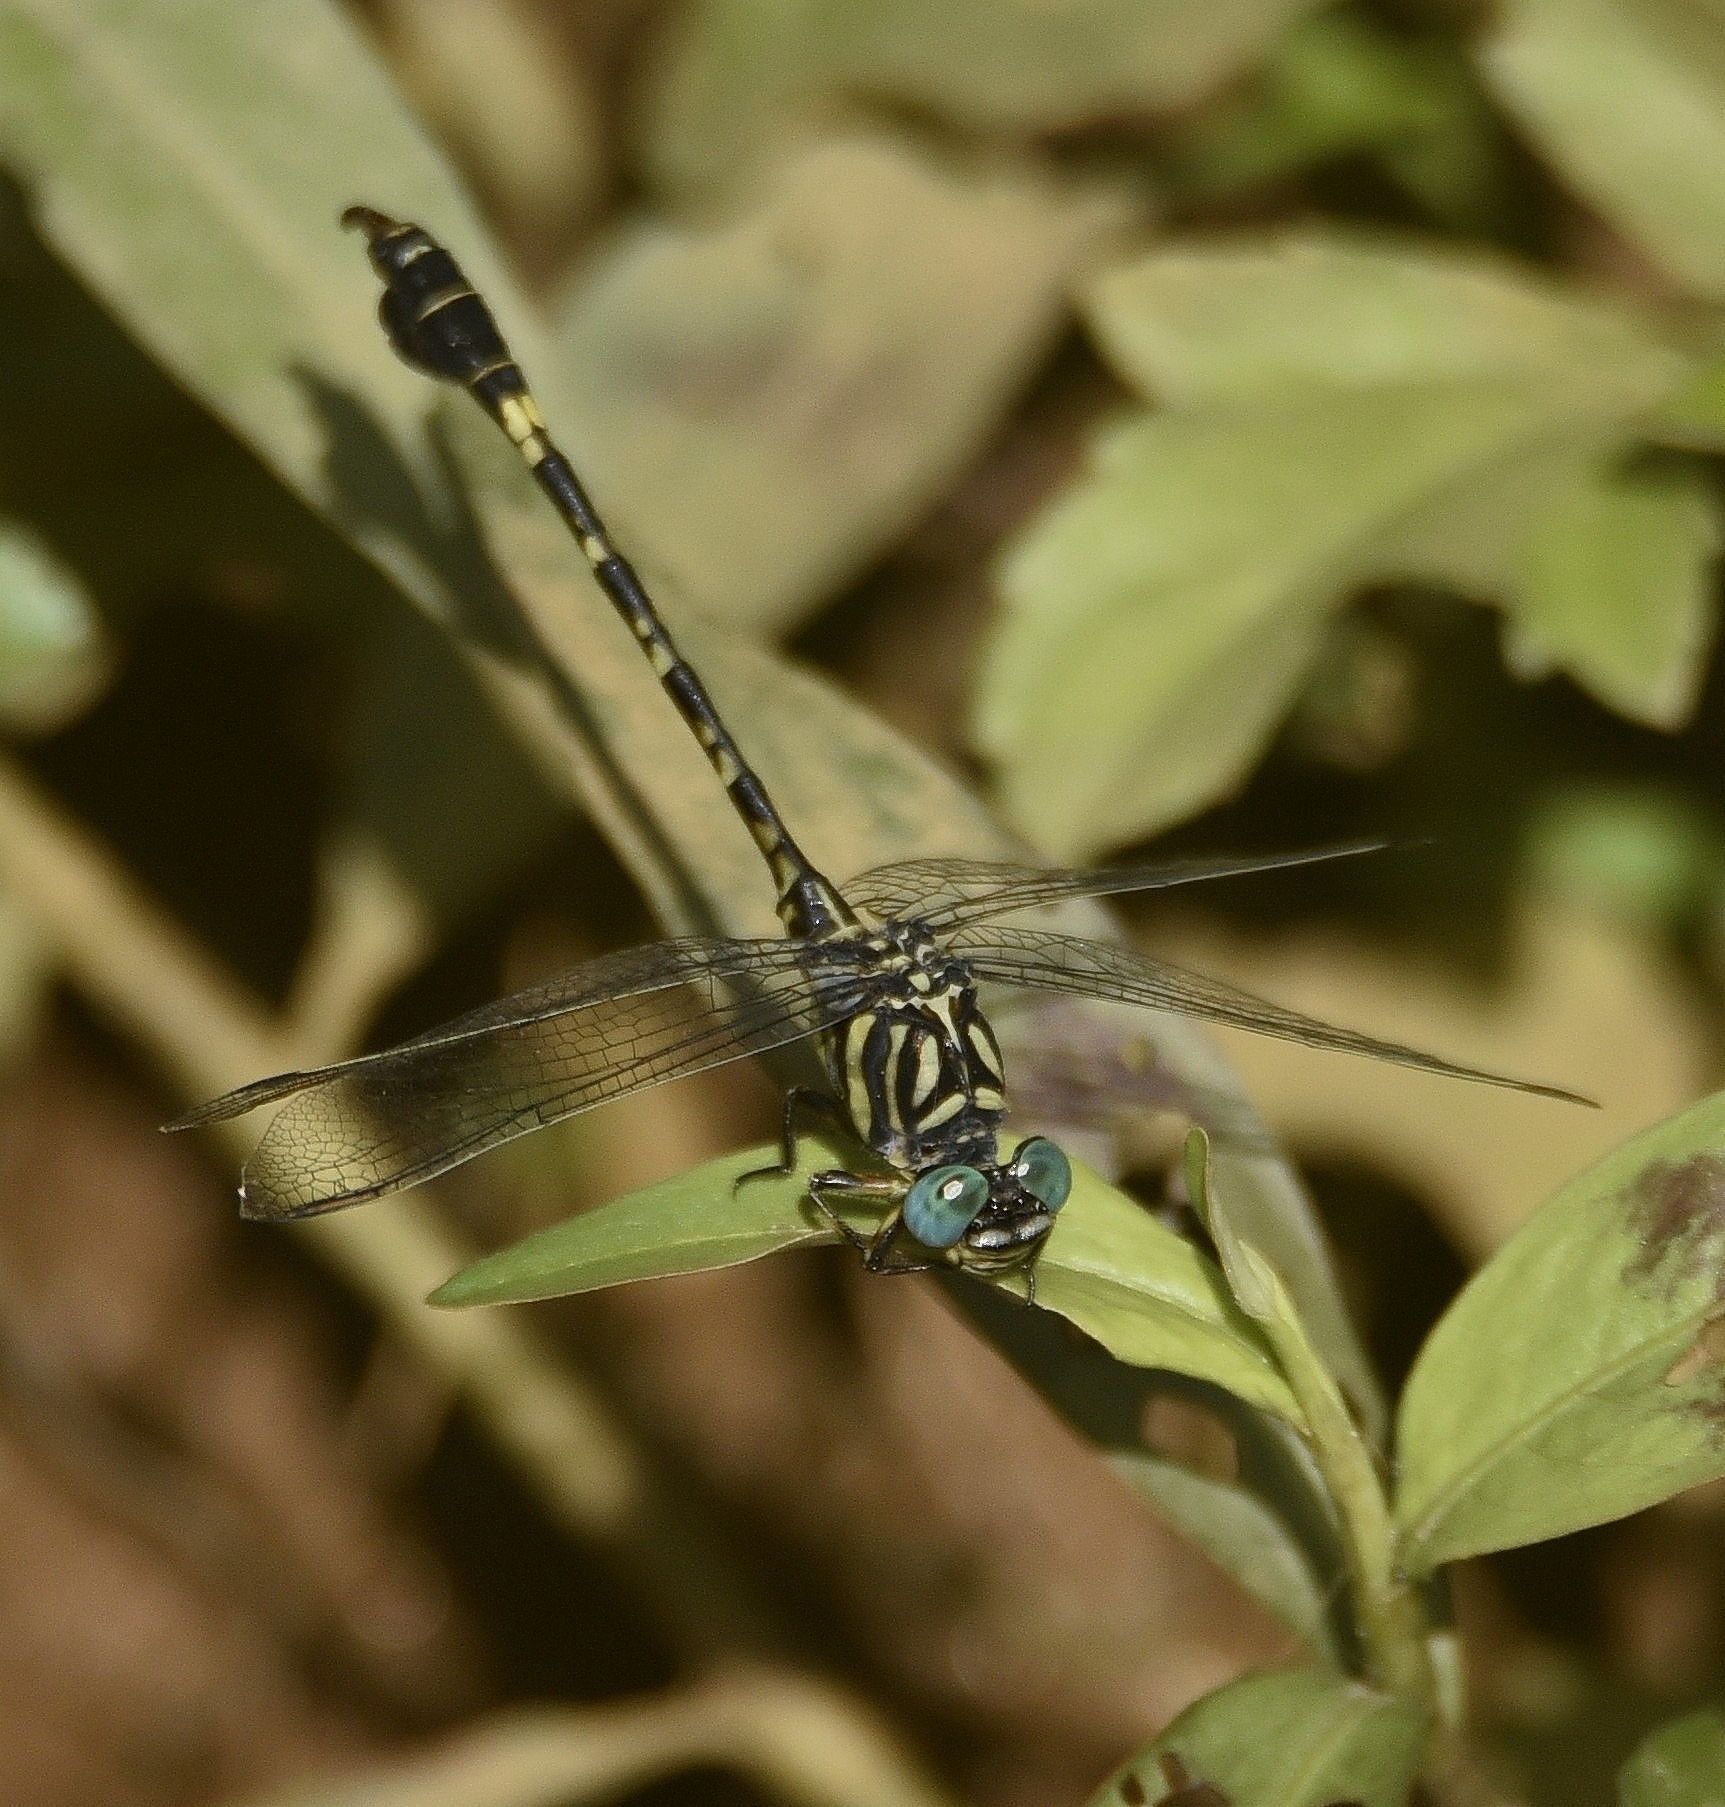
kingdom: Animalia
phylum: Arthropoda
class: Insecta
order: Odonata
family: Gomphidae
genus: Paragomphus
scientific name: Paragomphus lineatus
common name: Lined hooktail
